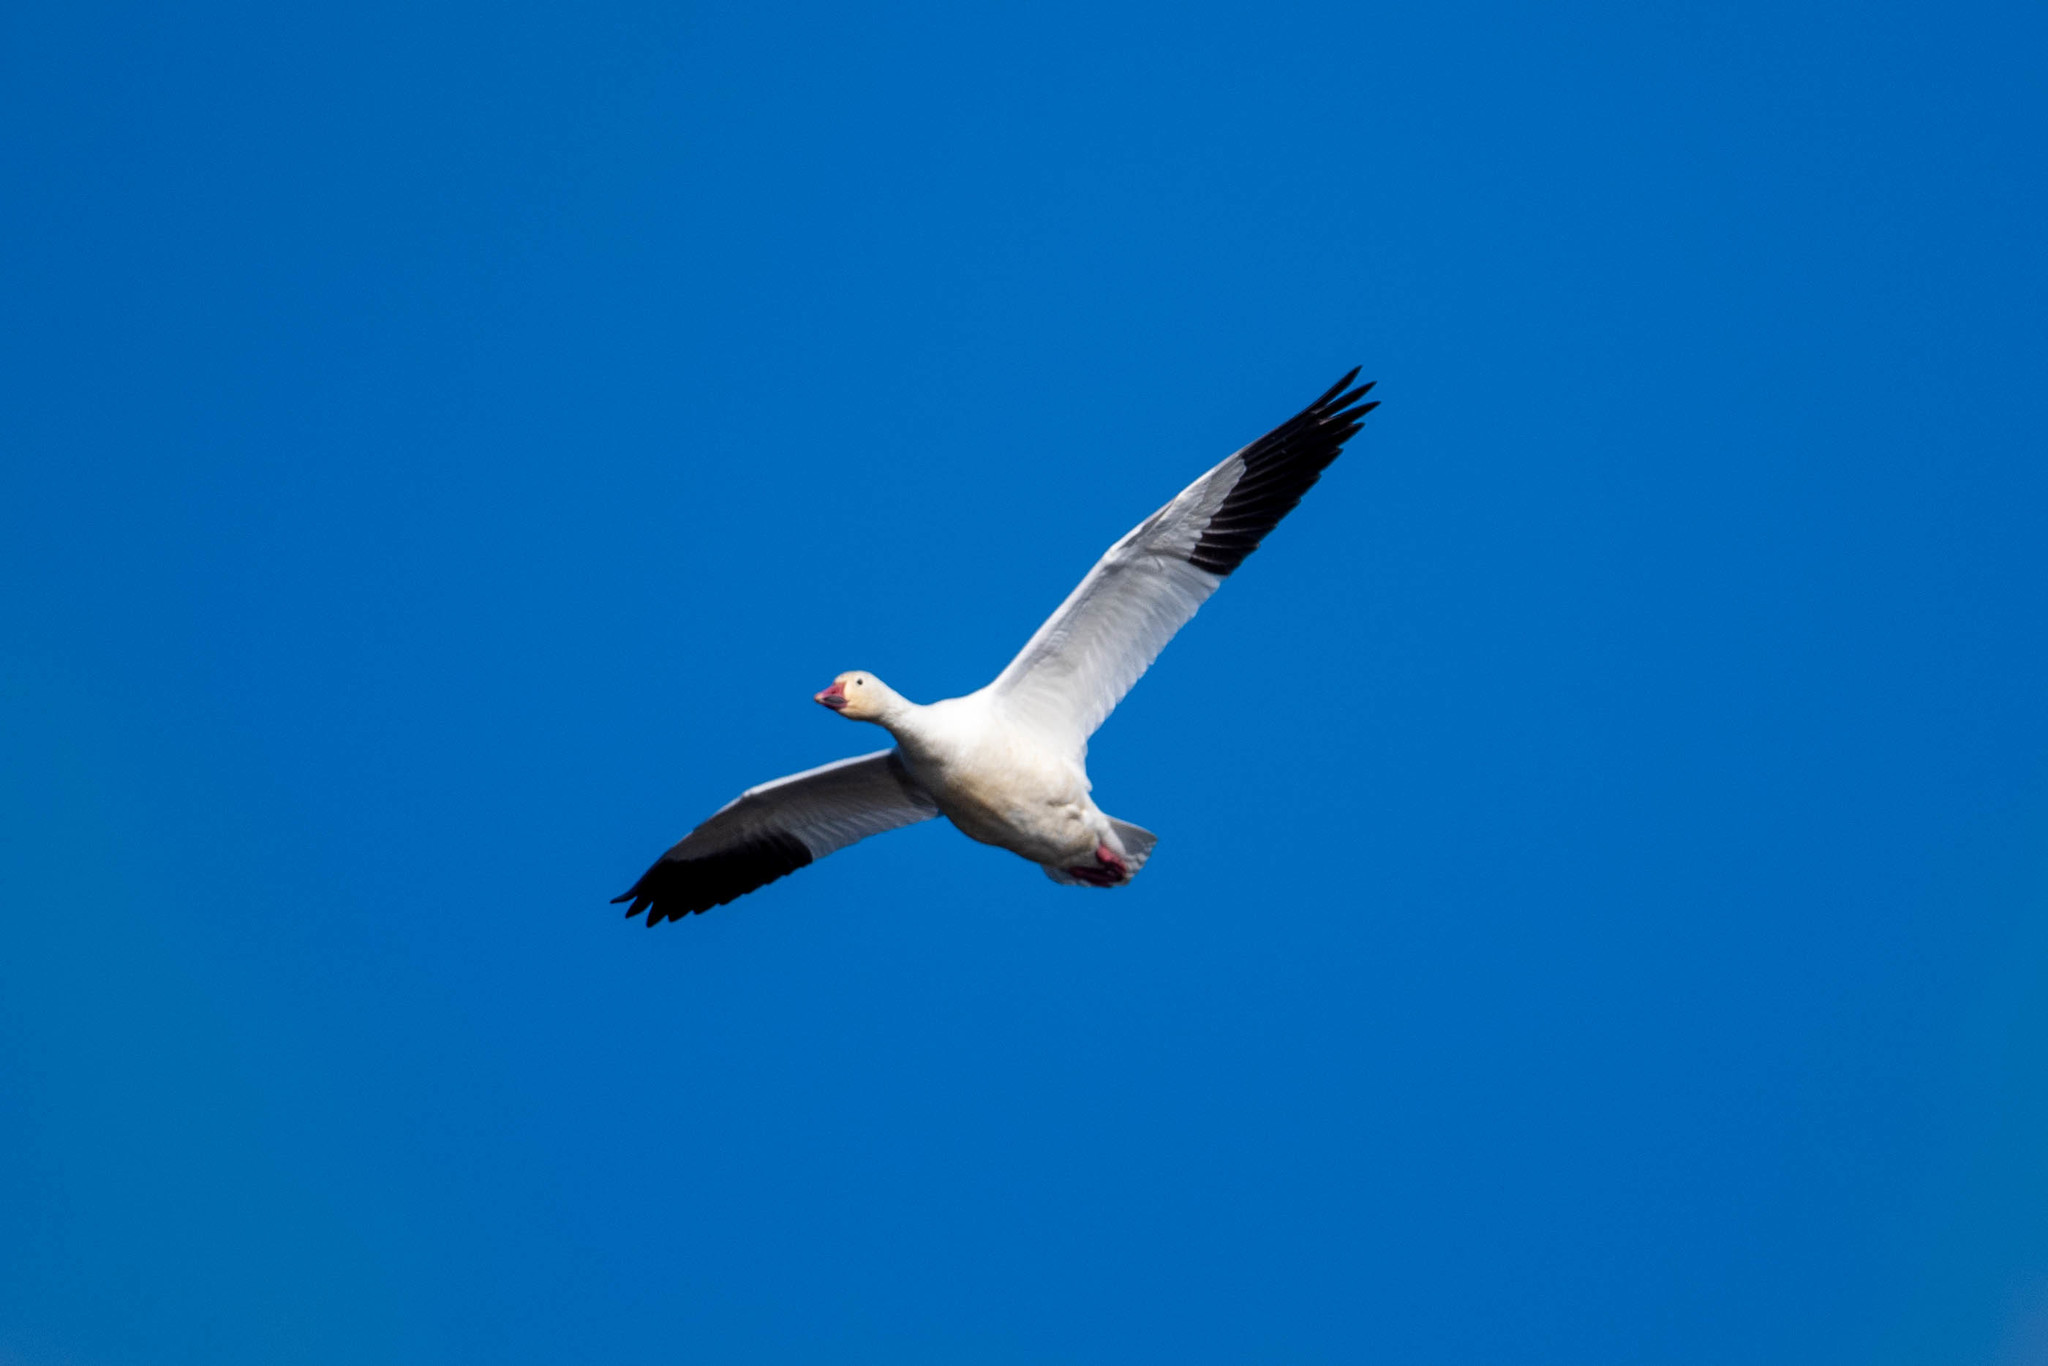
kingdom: Animalia
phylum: Chordata
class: Aves
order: Anseriformes
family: Anatidae
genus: Anser
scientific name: Anser caerulescens
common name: Snow goose
